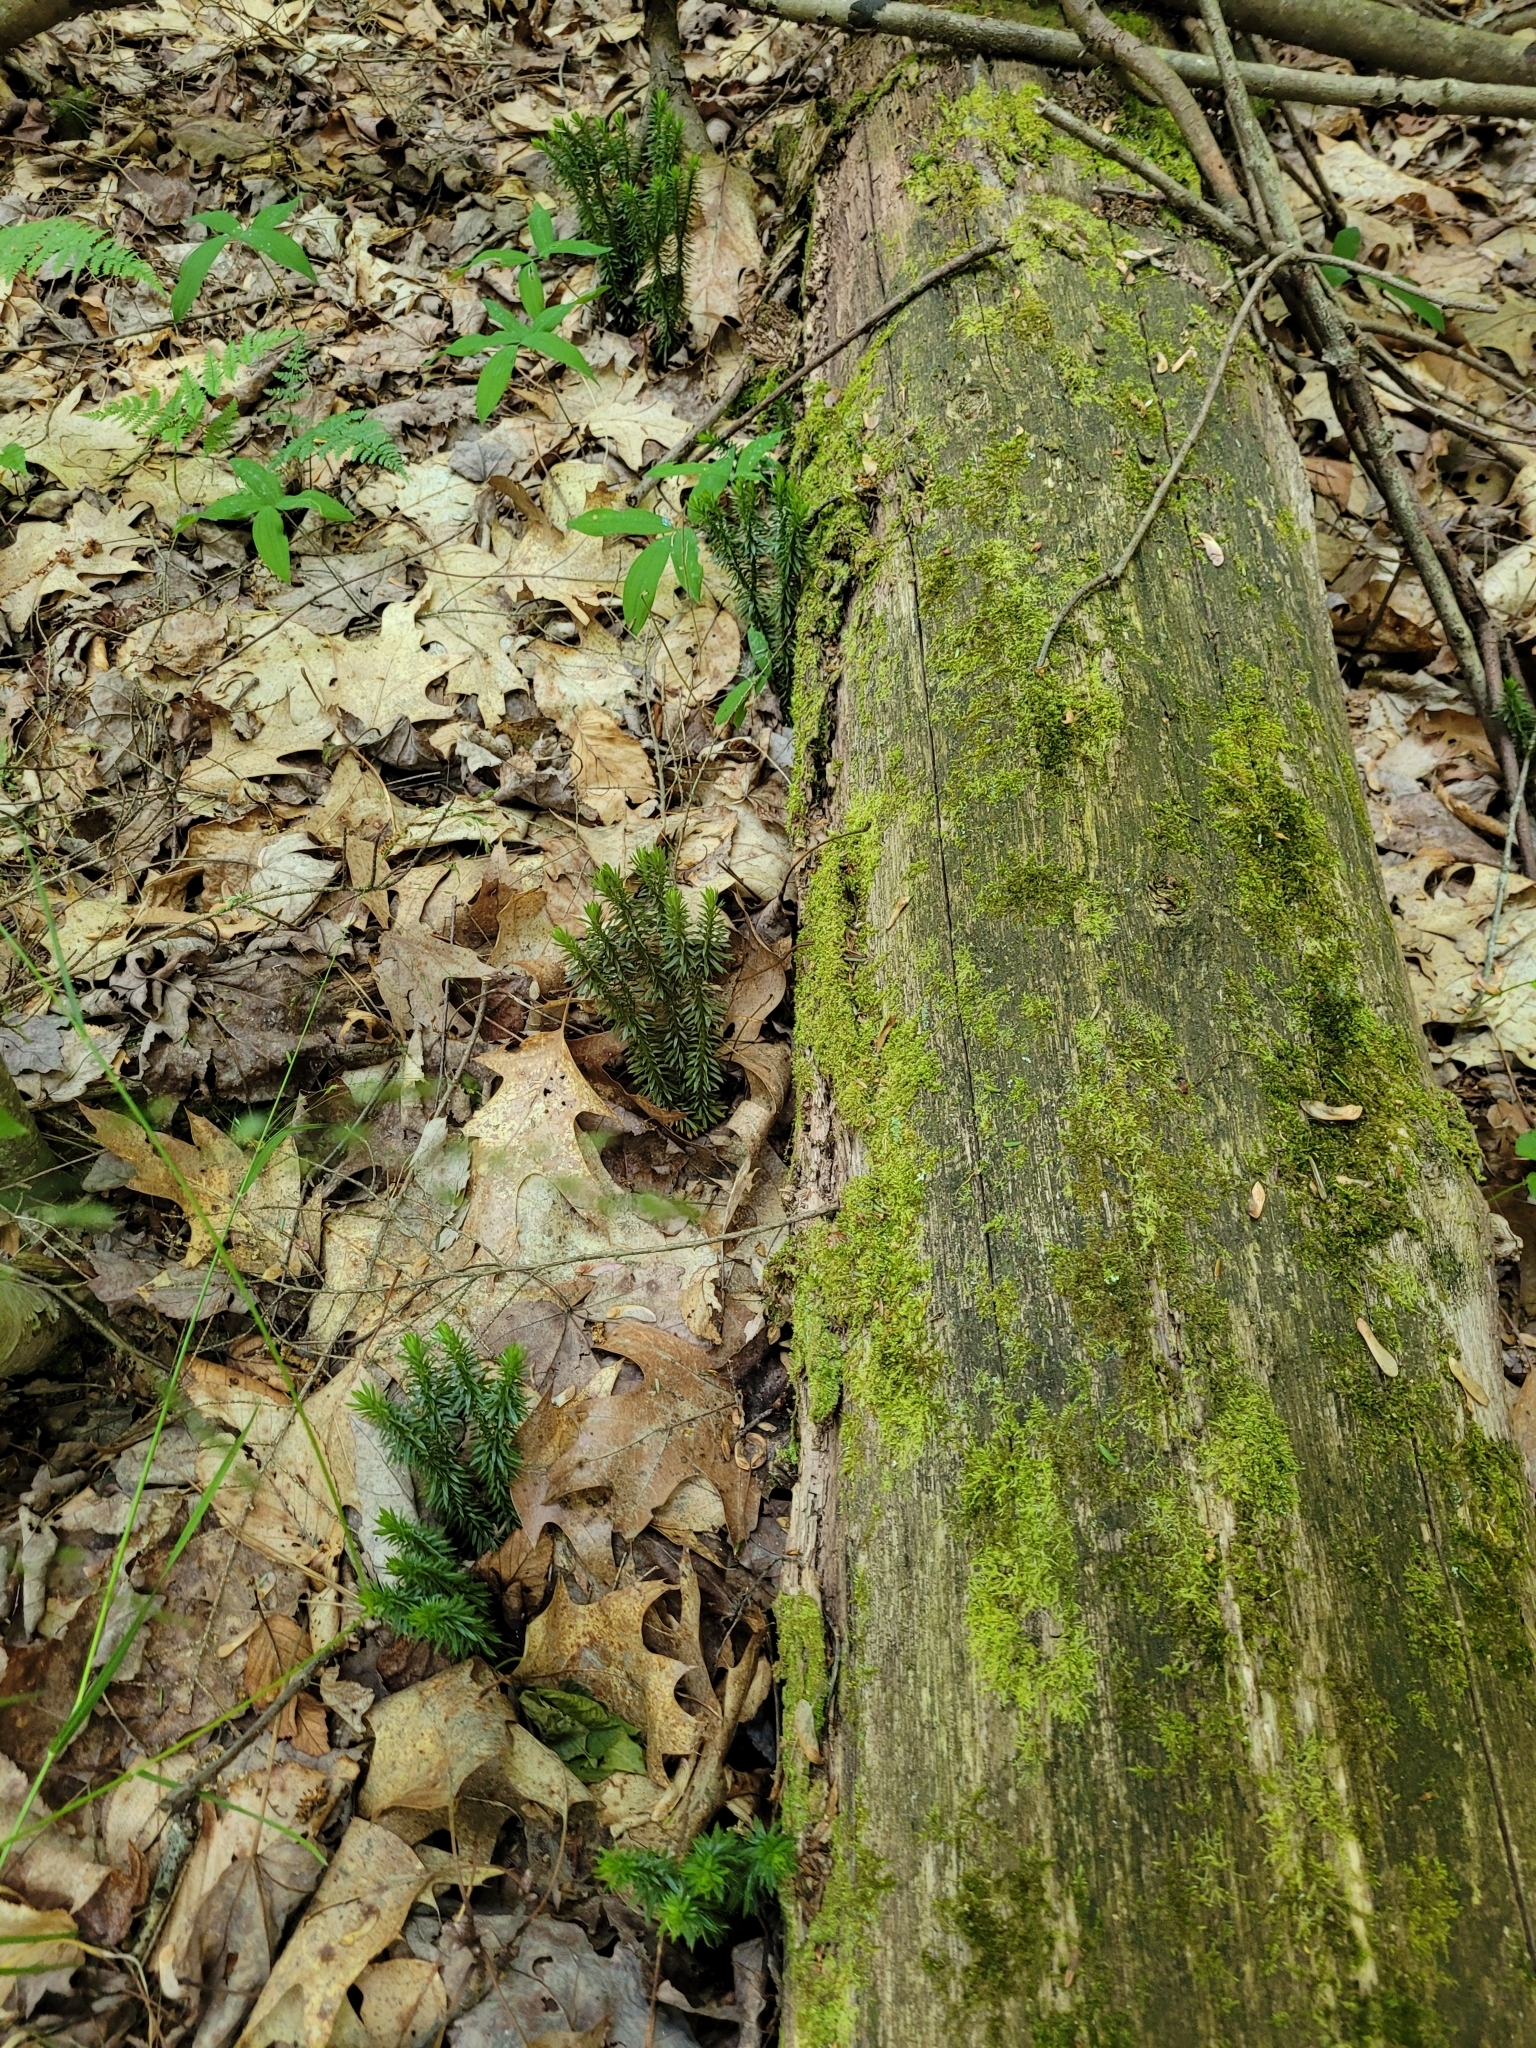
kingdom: Plantae
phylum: Tracheophyta
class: Lycopodiopsida
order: Lycopodiales
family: Lycopodiaceae
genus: Huperzia
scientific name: Huperzia lucidula
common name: Shining clubmoss
